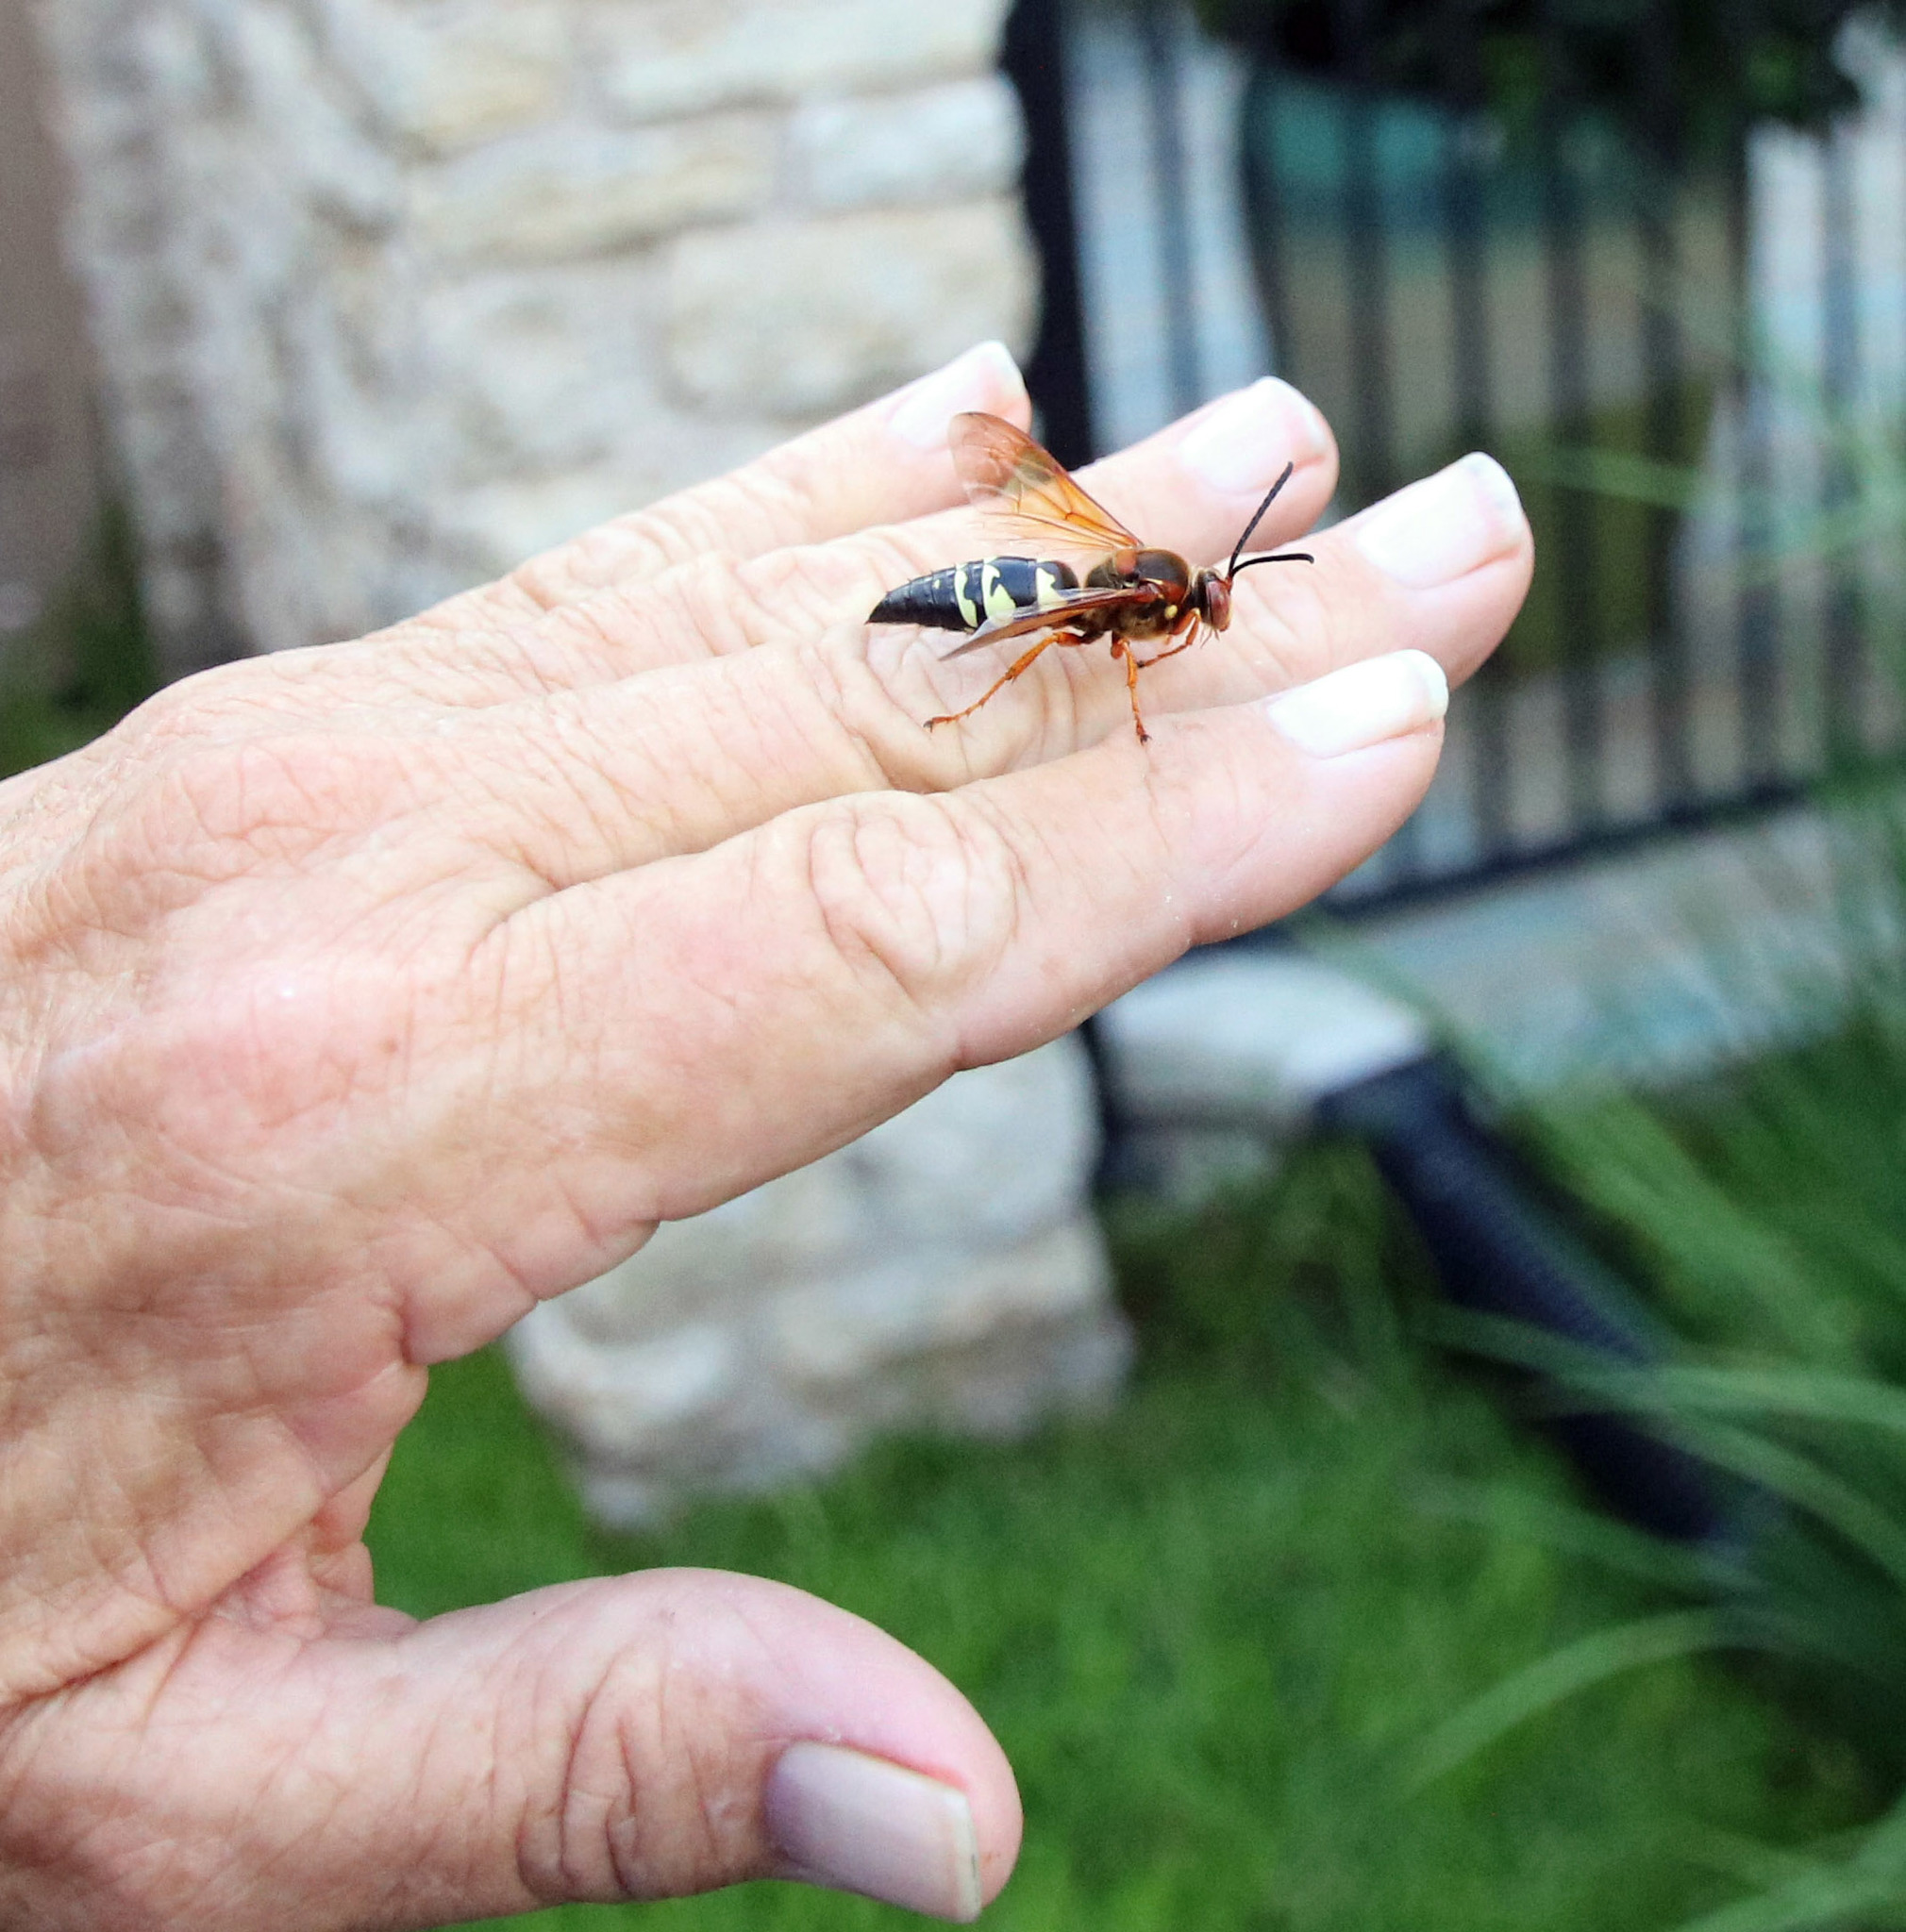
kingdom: Animalia
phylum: Arthropoda
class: Insecta
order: Hymenoptera
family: Crabronidae
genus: Sphecius
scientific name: Sphecius speciosus
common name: Cicada killer
